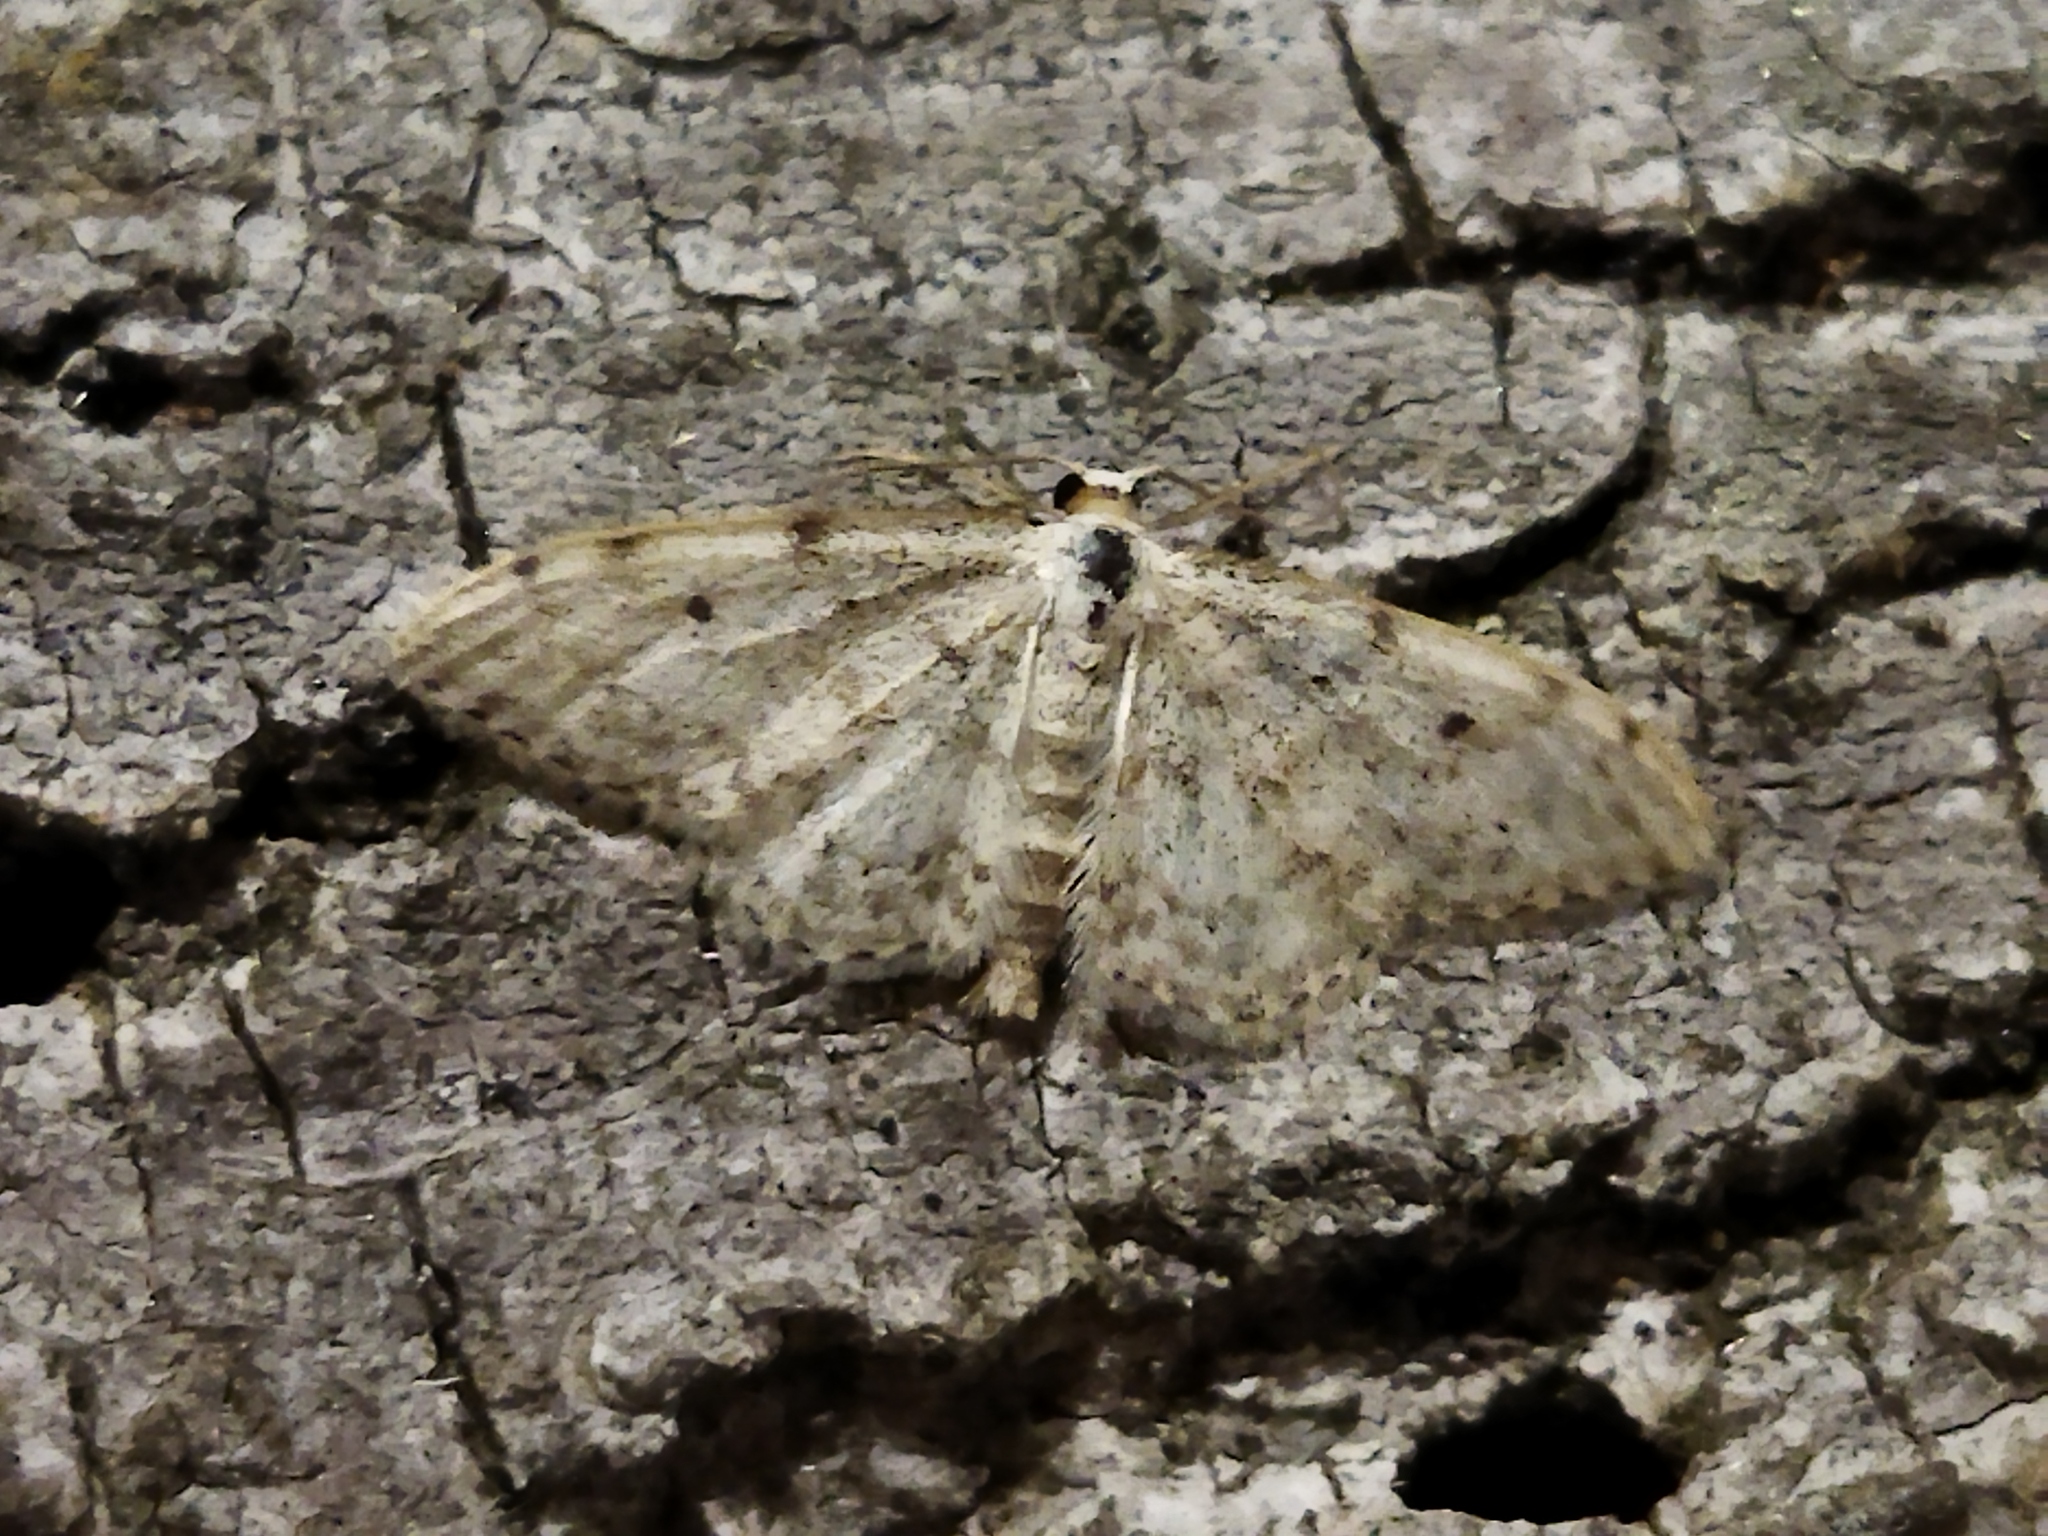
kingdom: Animalia
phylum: Arthropoda
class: Insecta
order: Lepidoptera
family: Geometridae
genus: Idaea
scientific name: Idaea camparia
